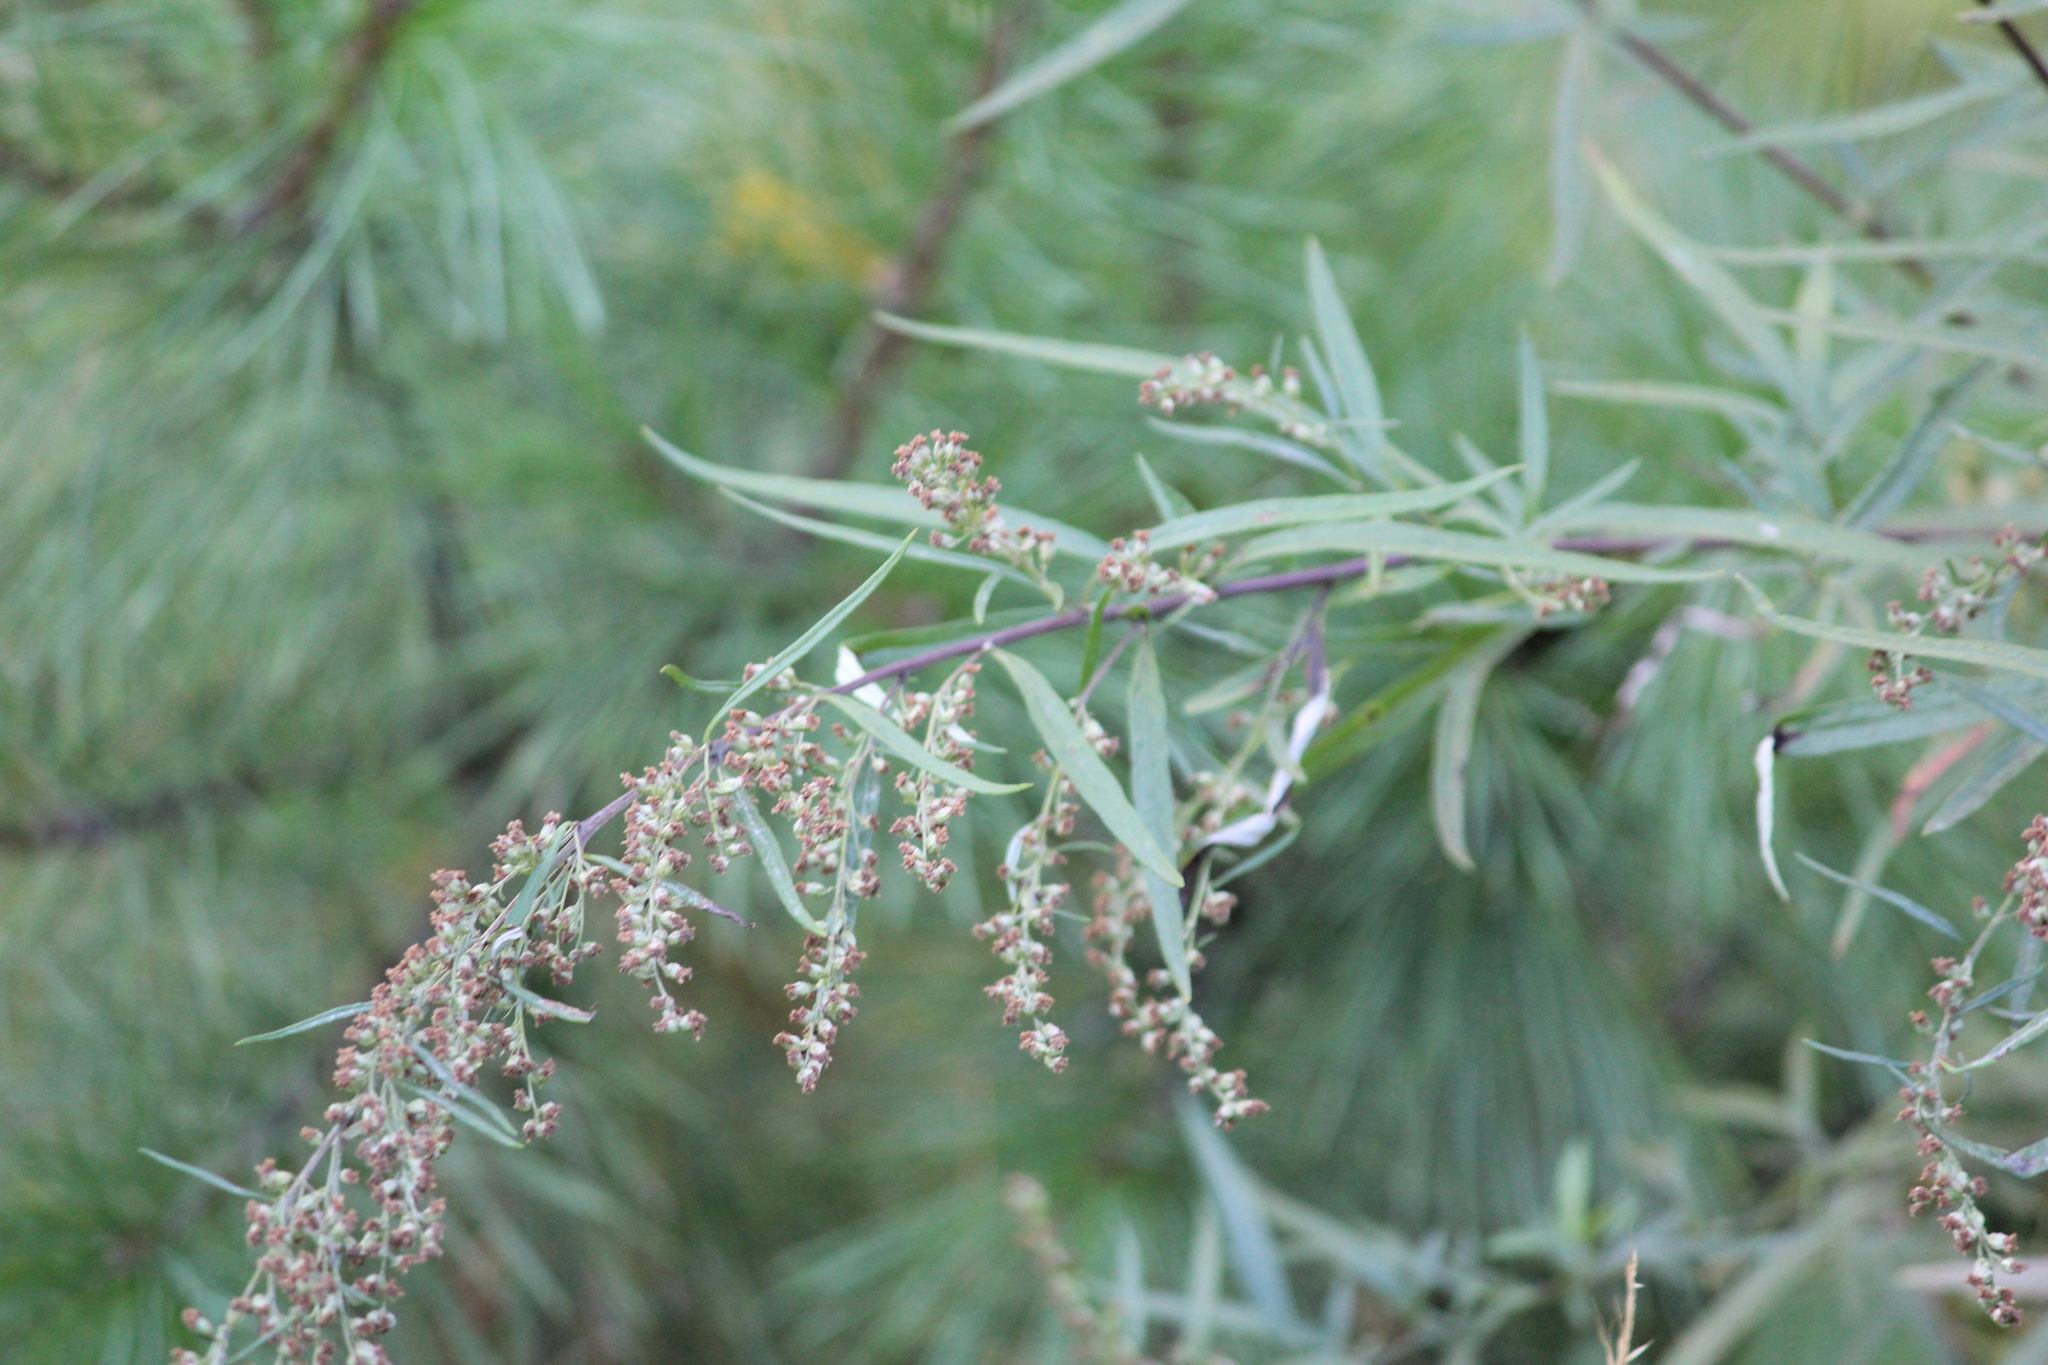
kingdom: Plantae
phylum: Tracheophyta
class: Magnoliopsida
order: Asterales
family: Asteraceae
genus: Artemisia
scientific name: Artemisia vulgaris
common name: Mugwort
